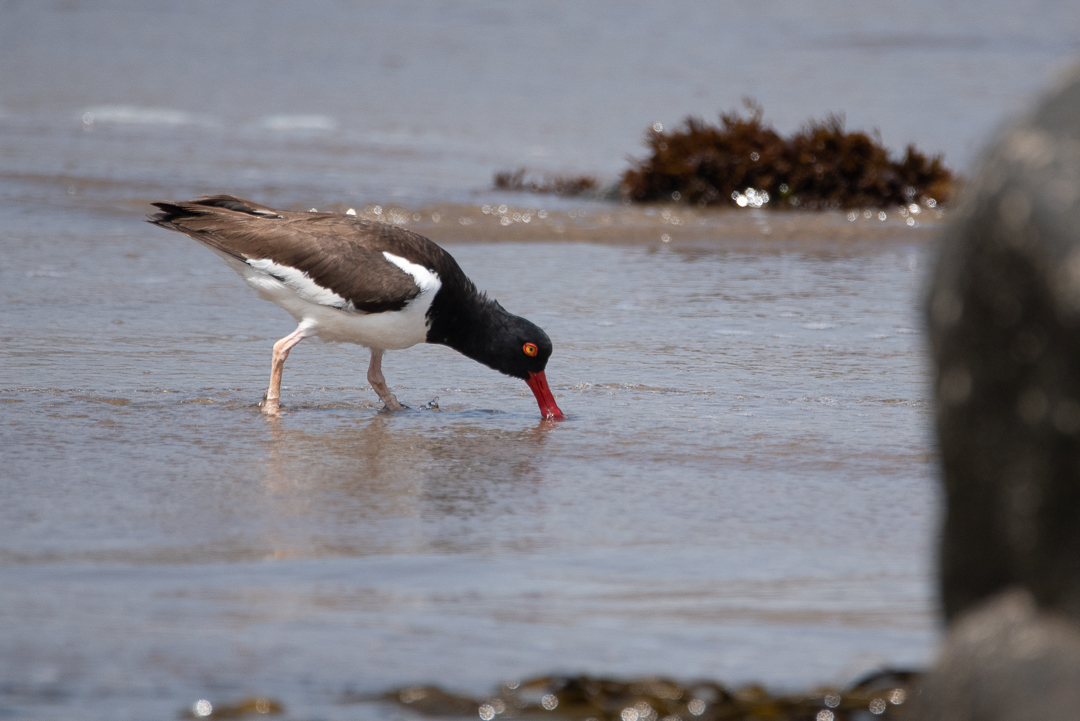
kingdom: Animalia
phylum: Chordata
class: Aves
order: Charadriiformes
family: Haematopodidae
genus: Haematopus
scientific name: Haematopus palliatus
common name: American oystercatcher
